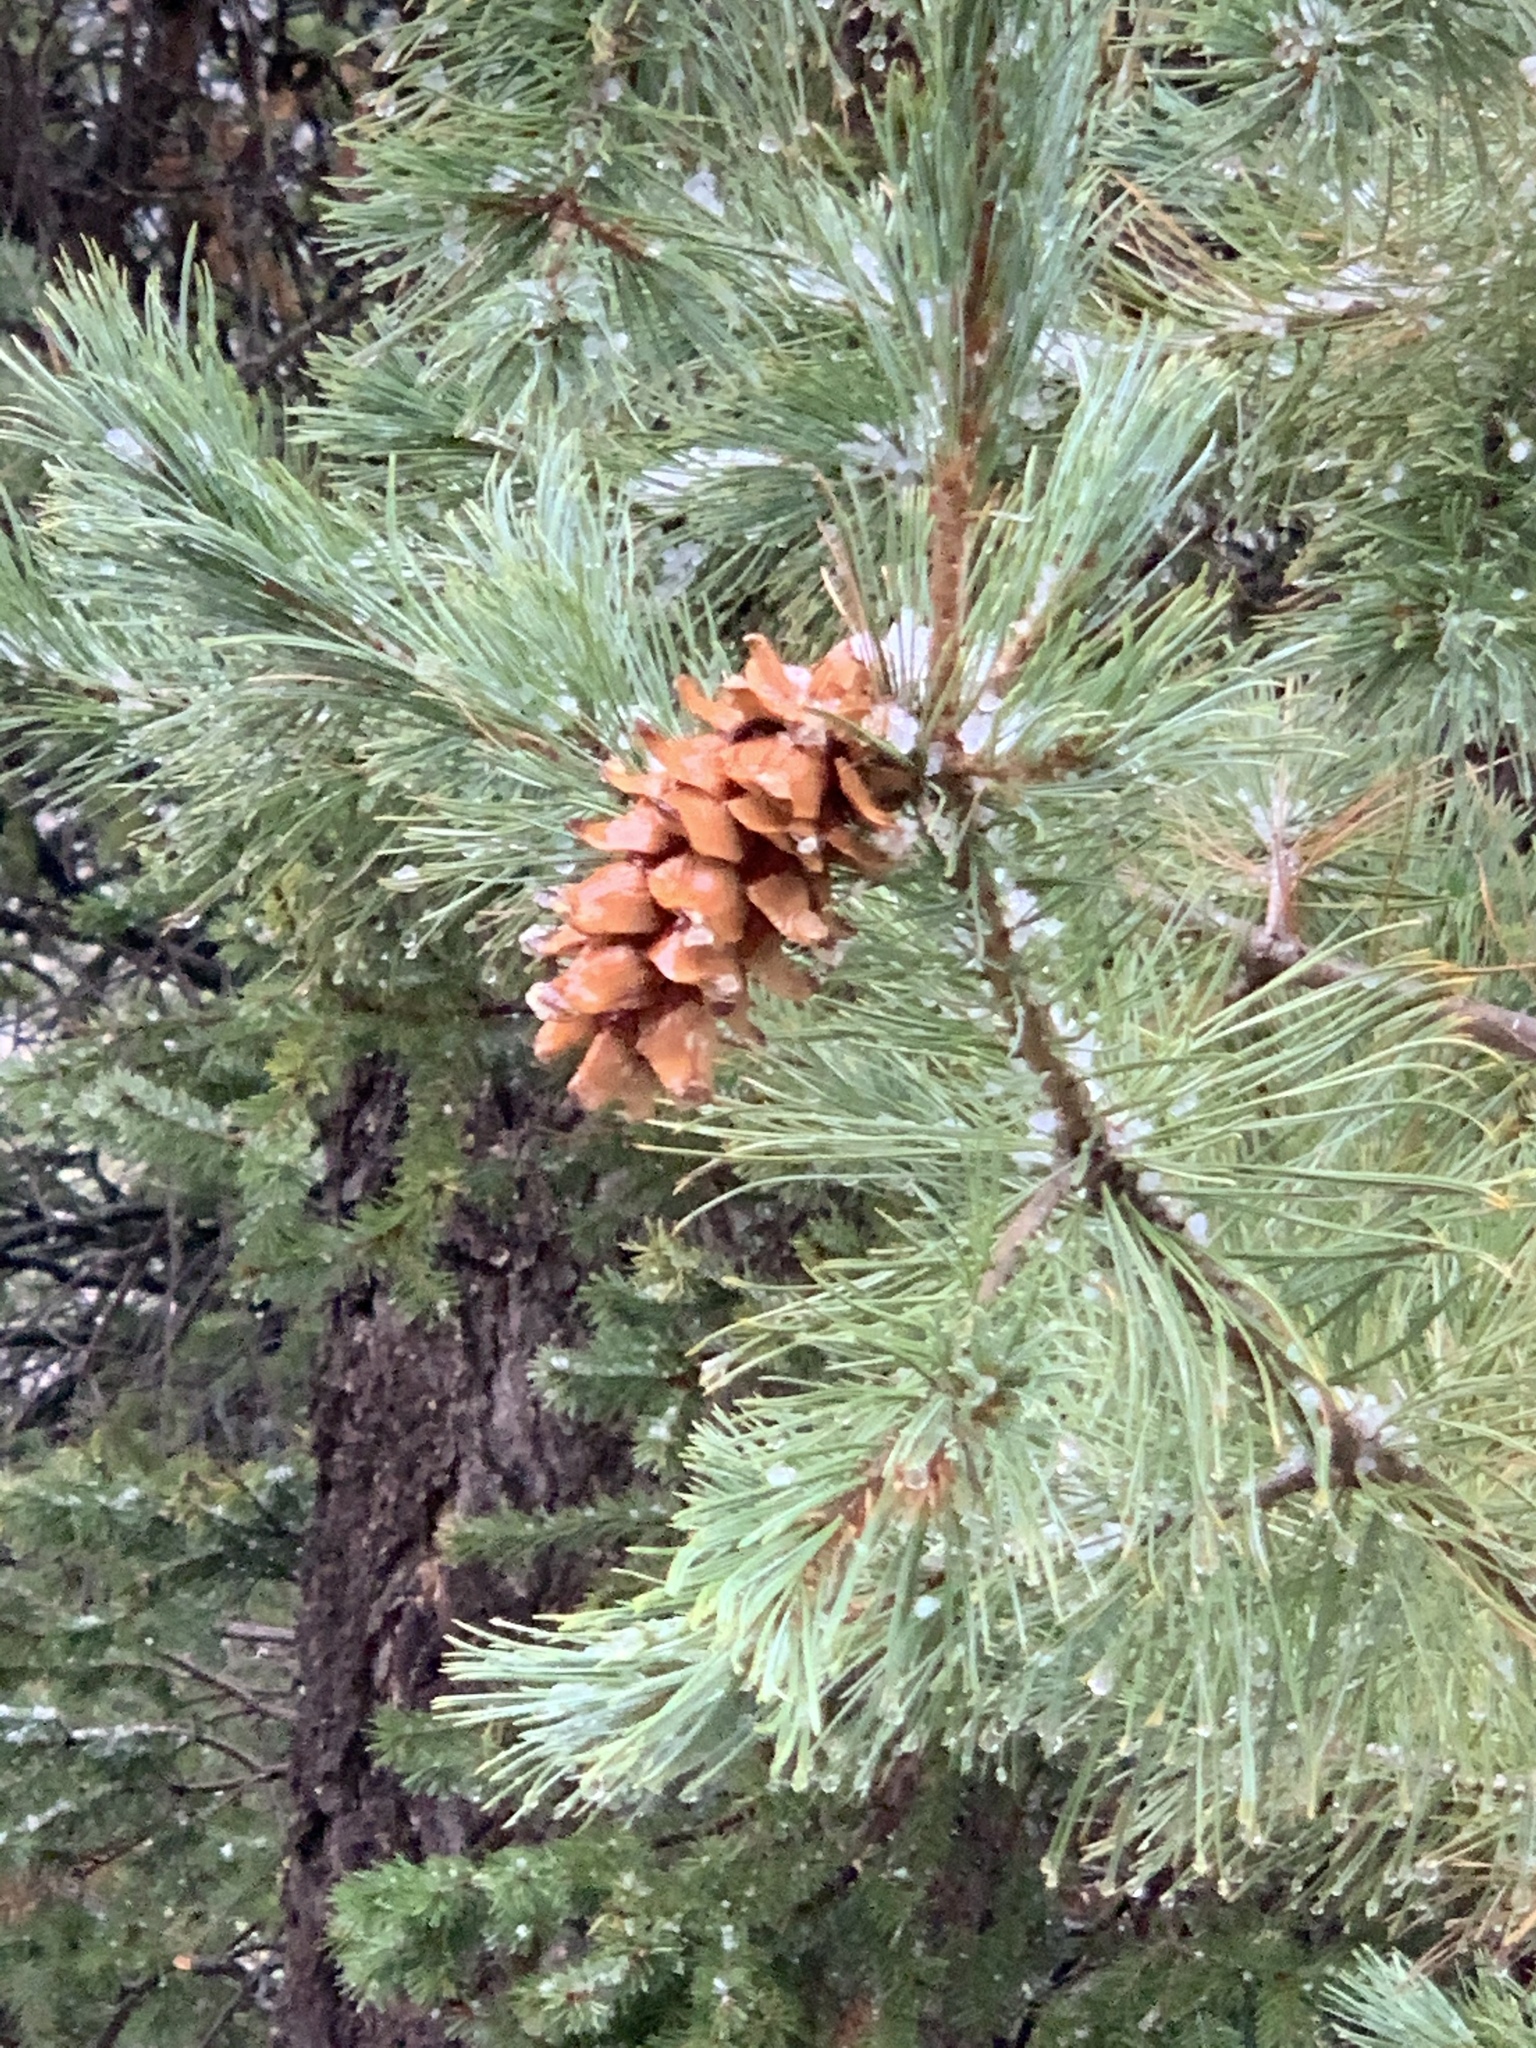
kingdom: Plantae
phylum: Tracheophyta
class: Pinopsida
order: Pinales
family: Pinaceae
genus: Pinus
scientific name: Pinus strobiformis
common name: Southwestern white pine
